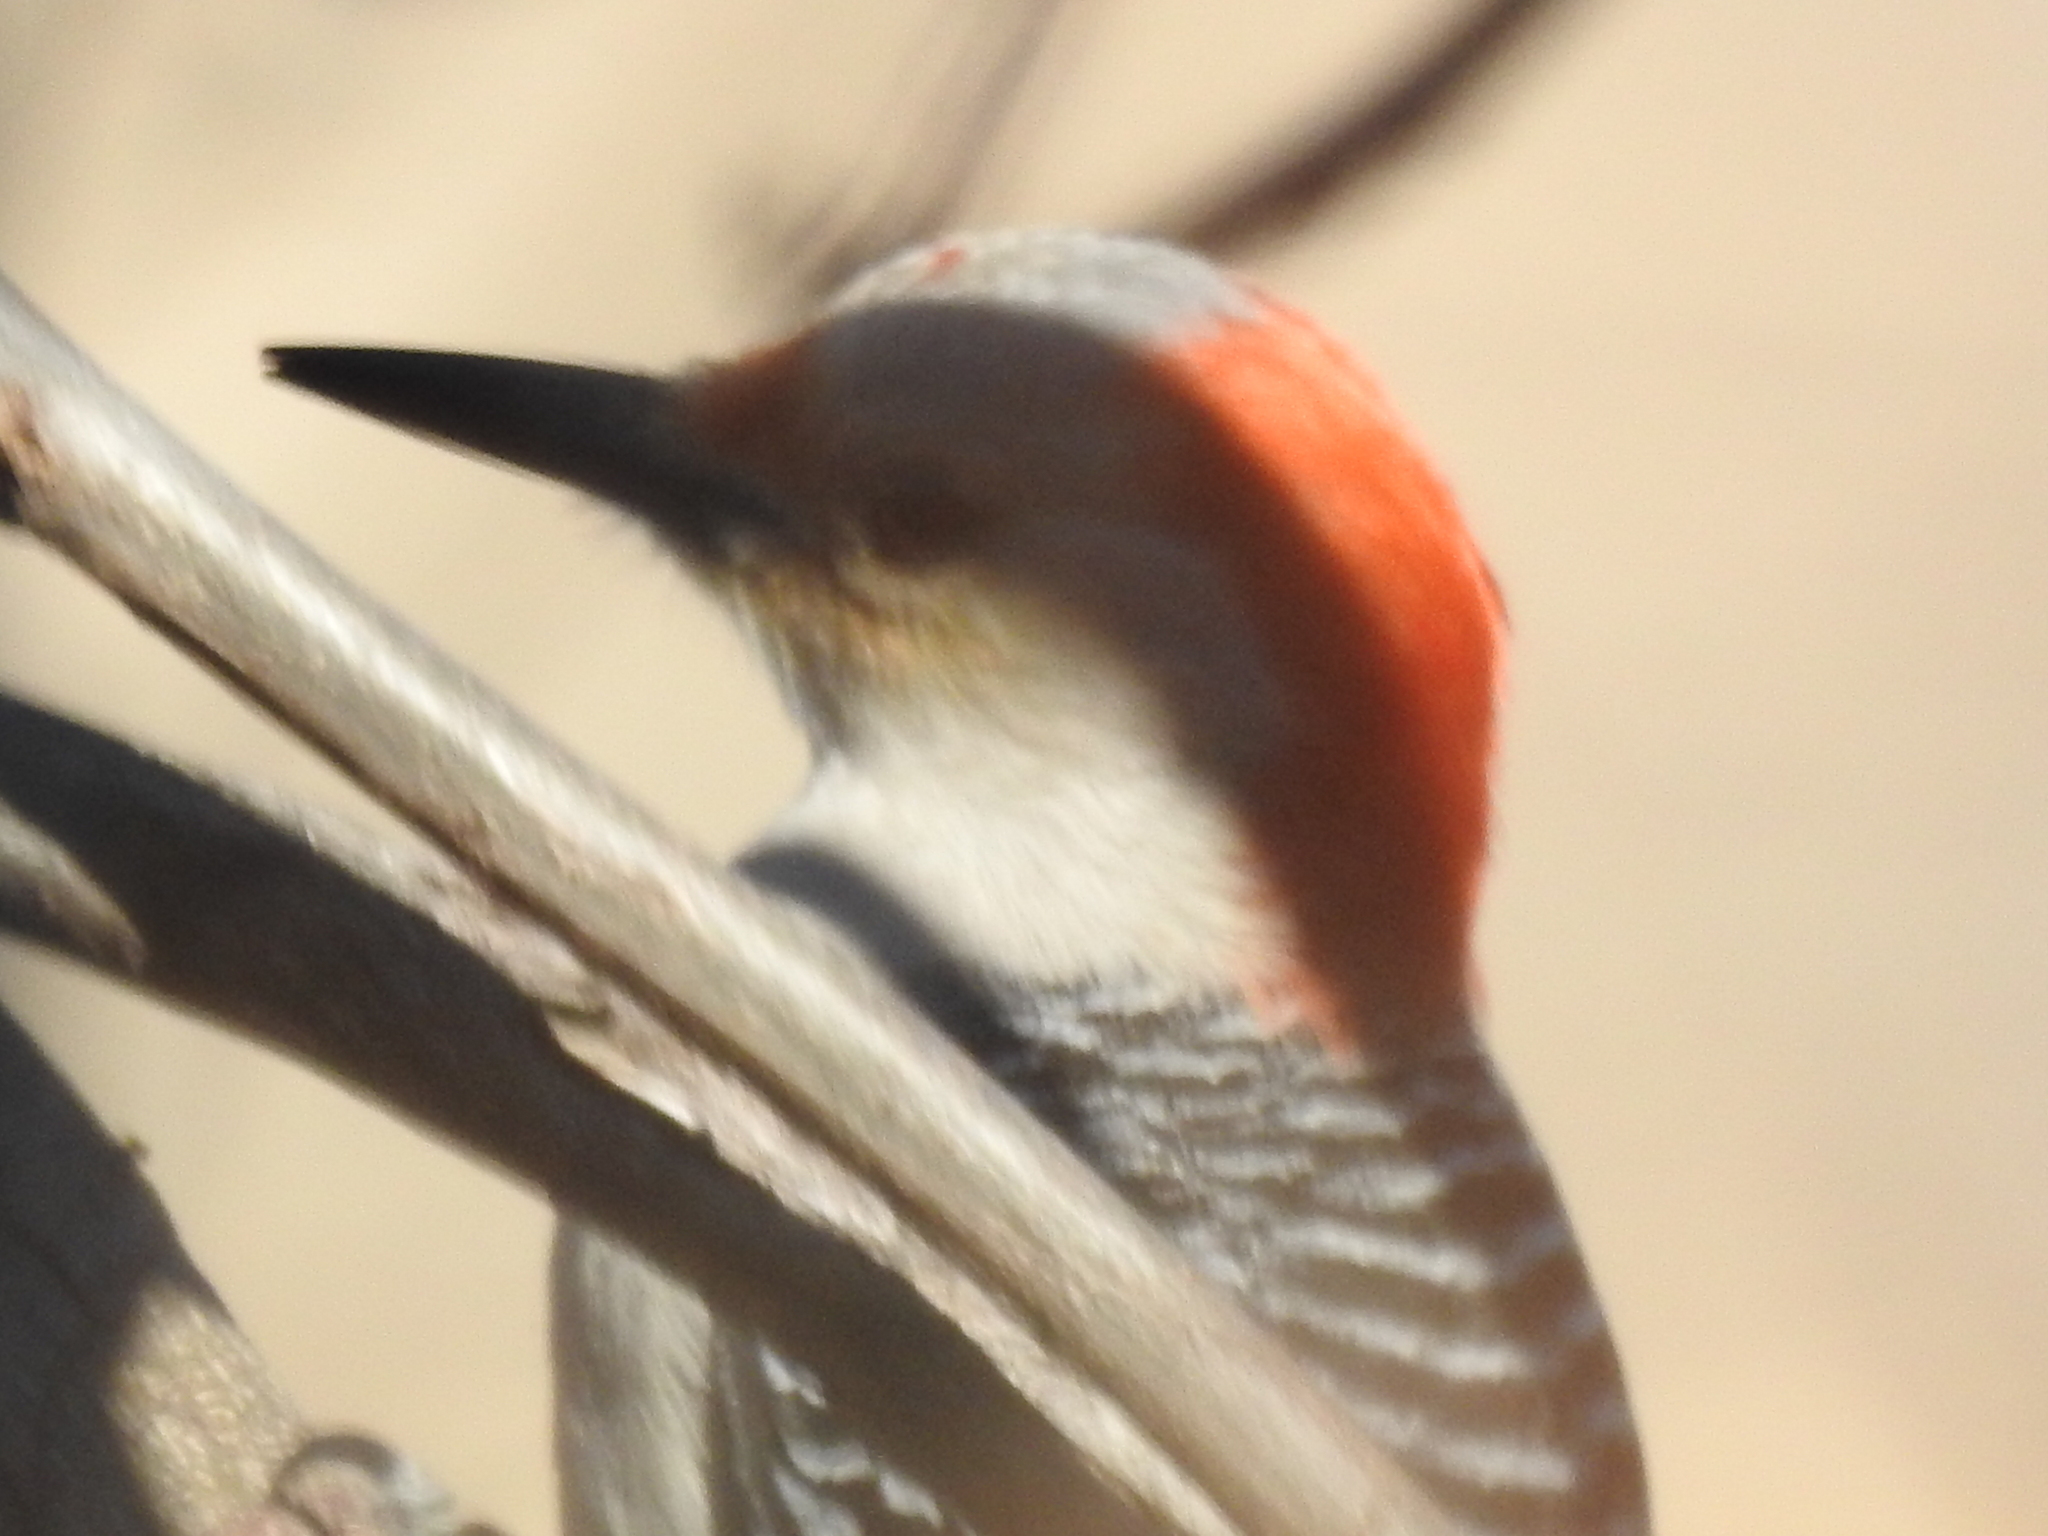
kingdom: Animalia
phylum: Chordata
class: Aves
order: Piciformes
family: Picidae
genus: Melanerpes
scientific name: Melanerpes carolinus
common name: Red-bellied woodpecker
